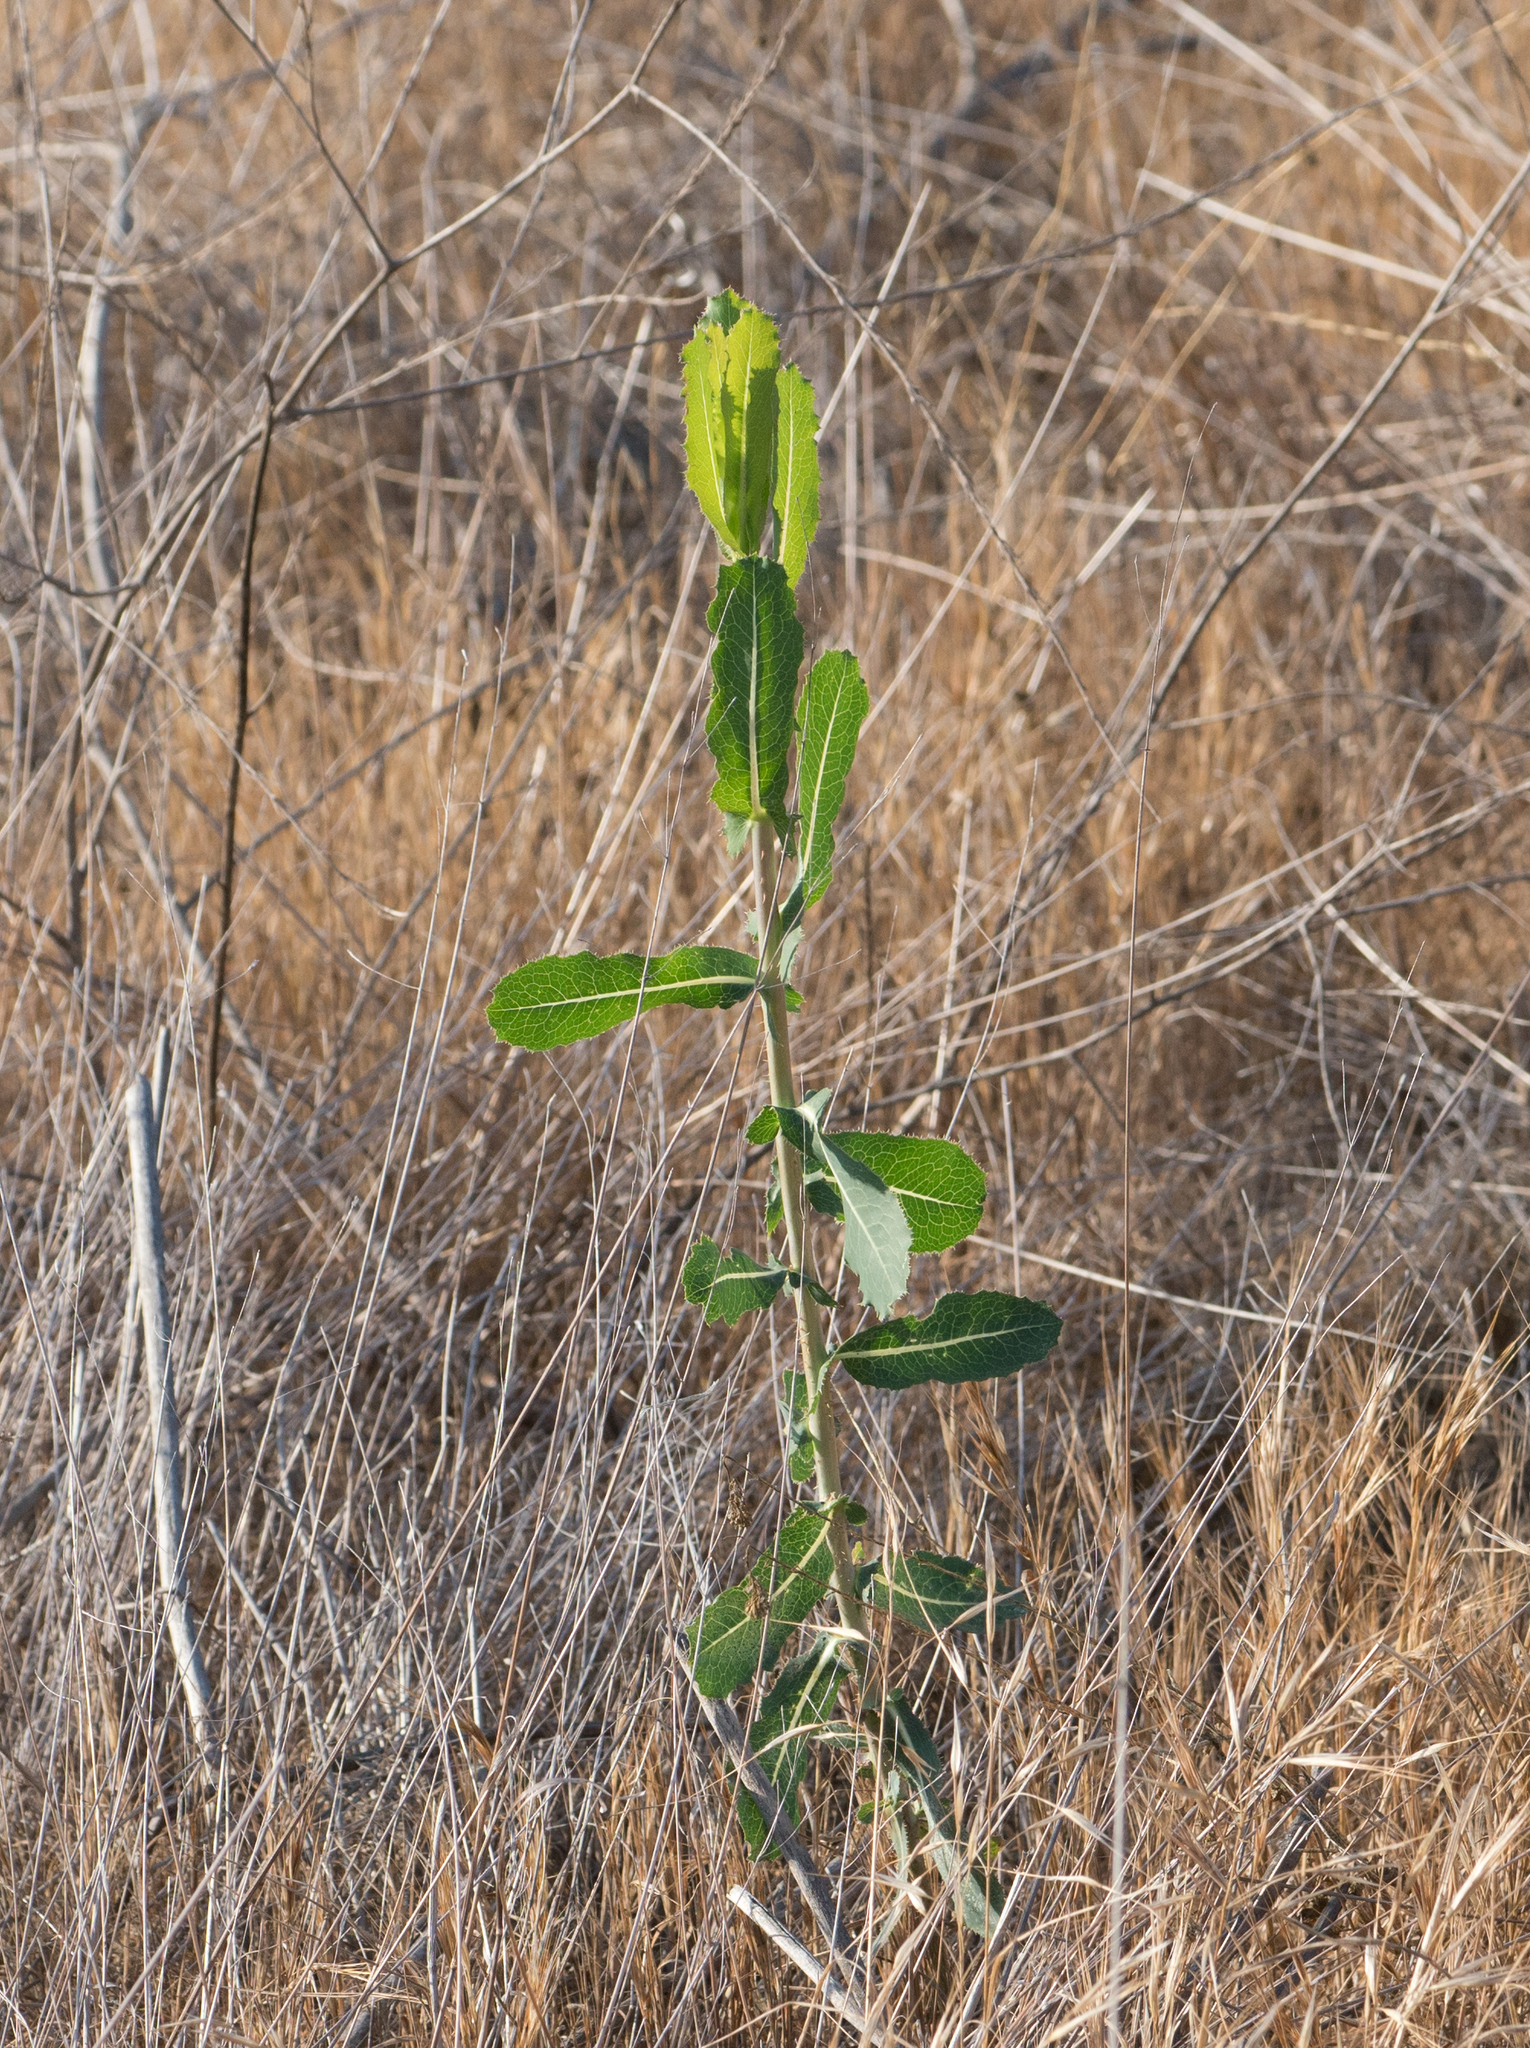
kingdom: Plantae
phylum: Tracheophyta
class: Magnoliopsida
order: Asterales
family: Asteraceae
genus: Lactuca
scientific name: Lactuca serriola
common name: Prickly lettuce
